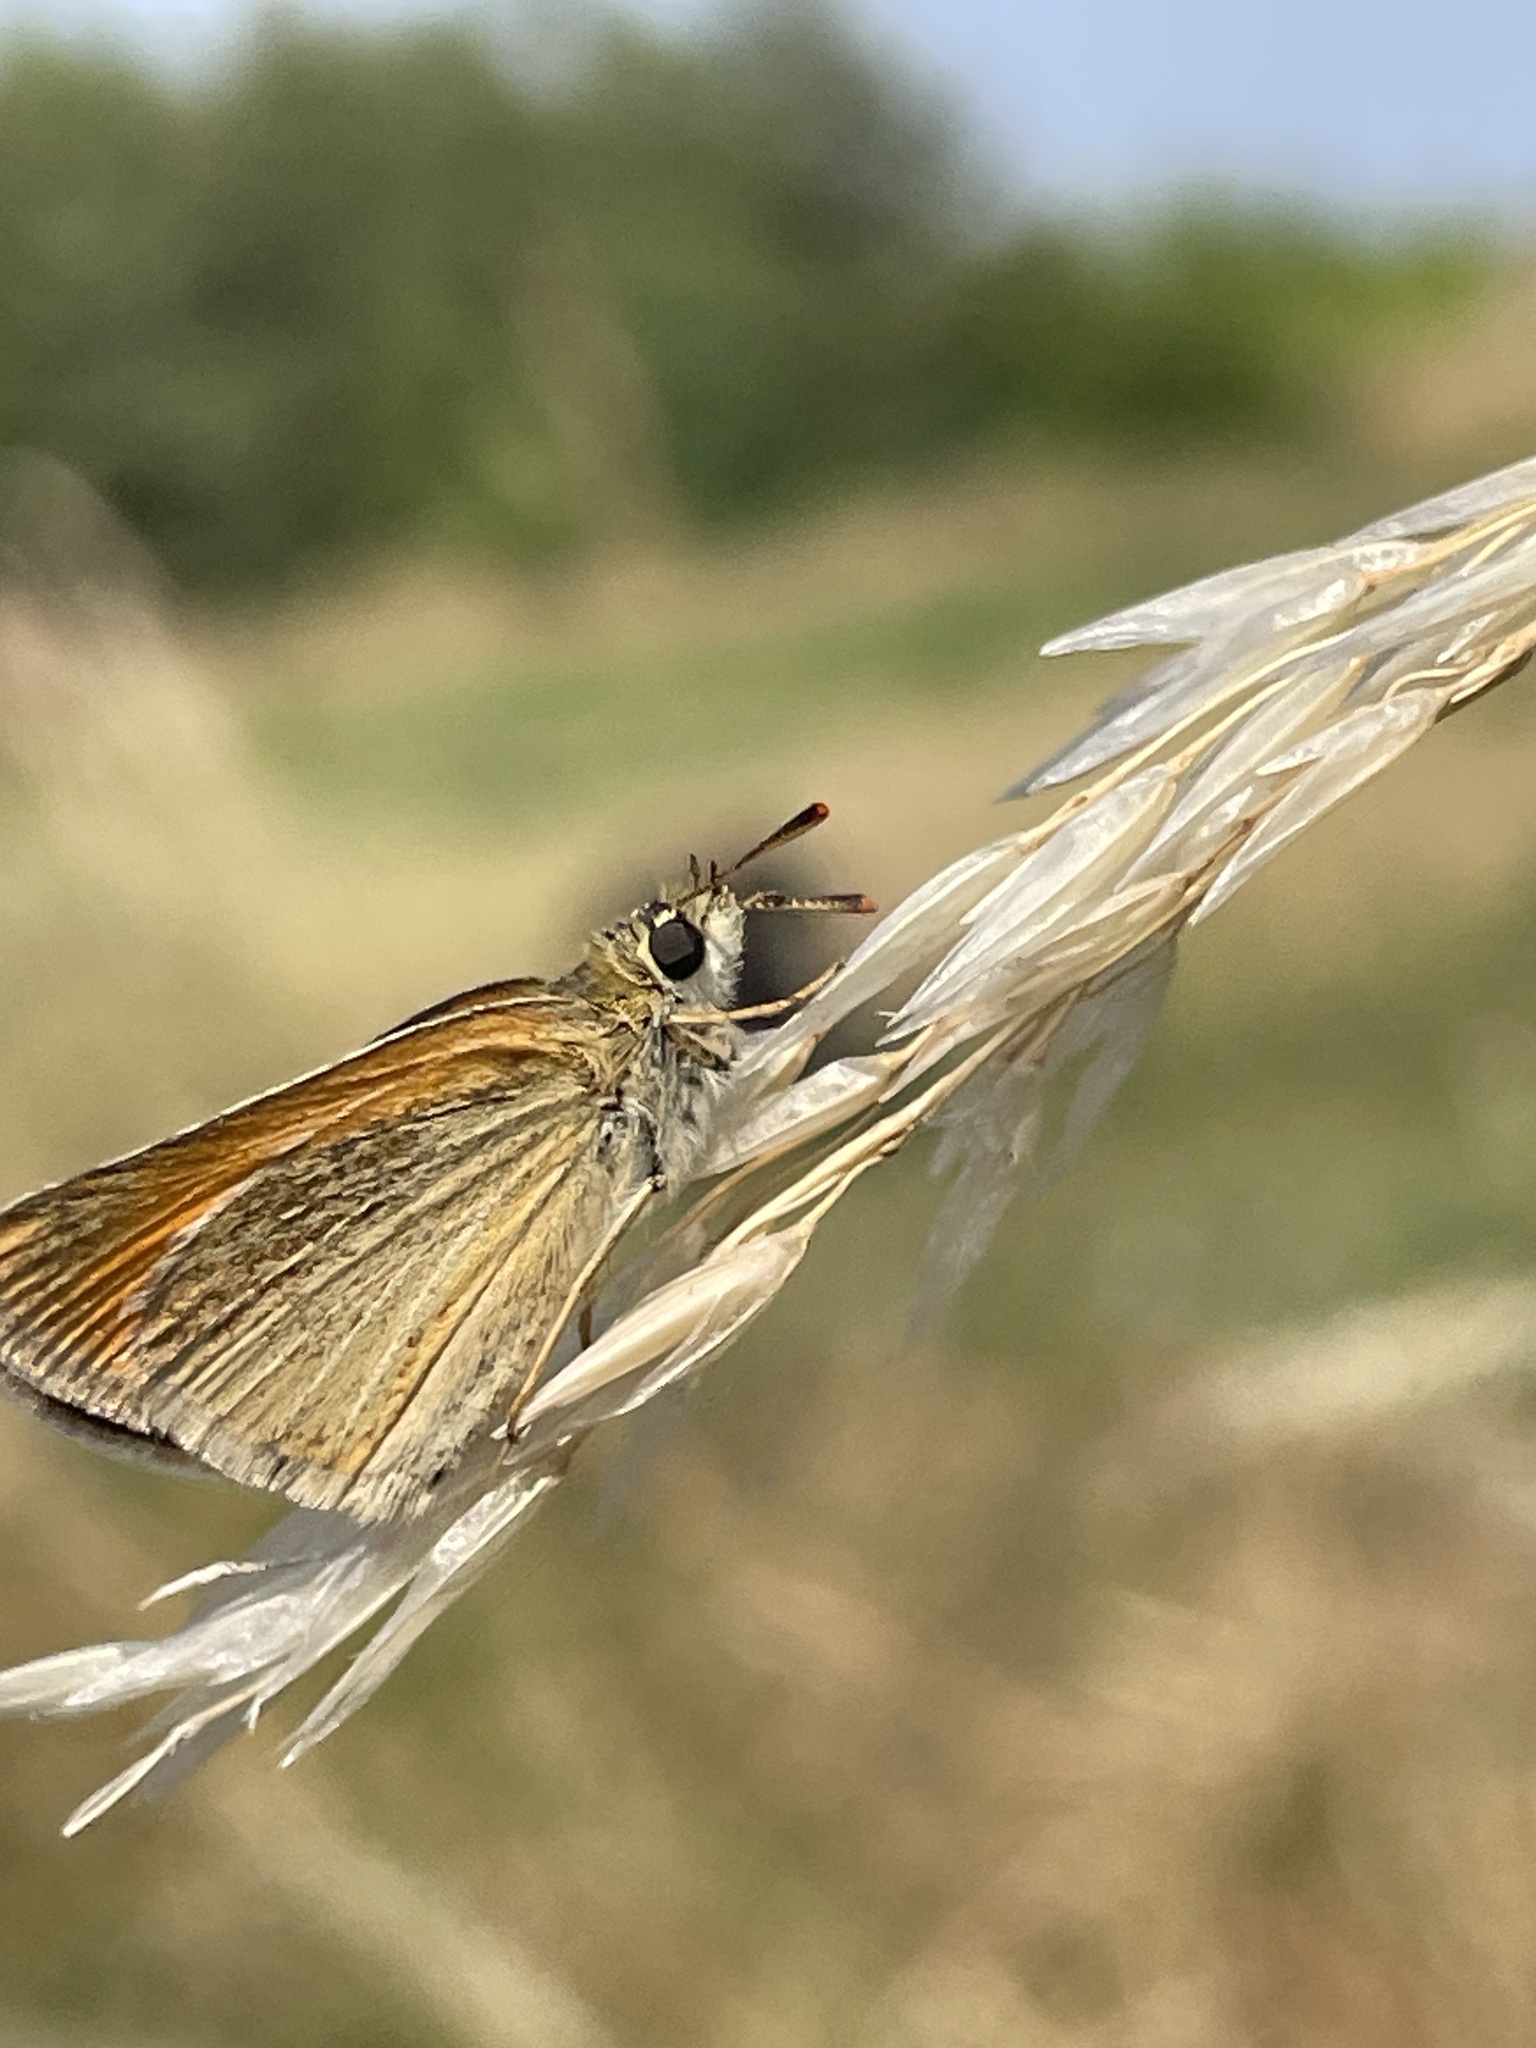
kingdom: Animalia
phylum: Arthropoda
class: Insecta
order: Lepidoptera
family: Hesperiidae
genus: Thymelicus
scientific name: Thymelicus sylvestris
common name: Small skipper
